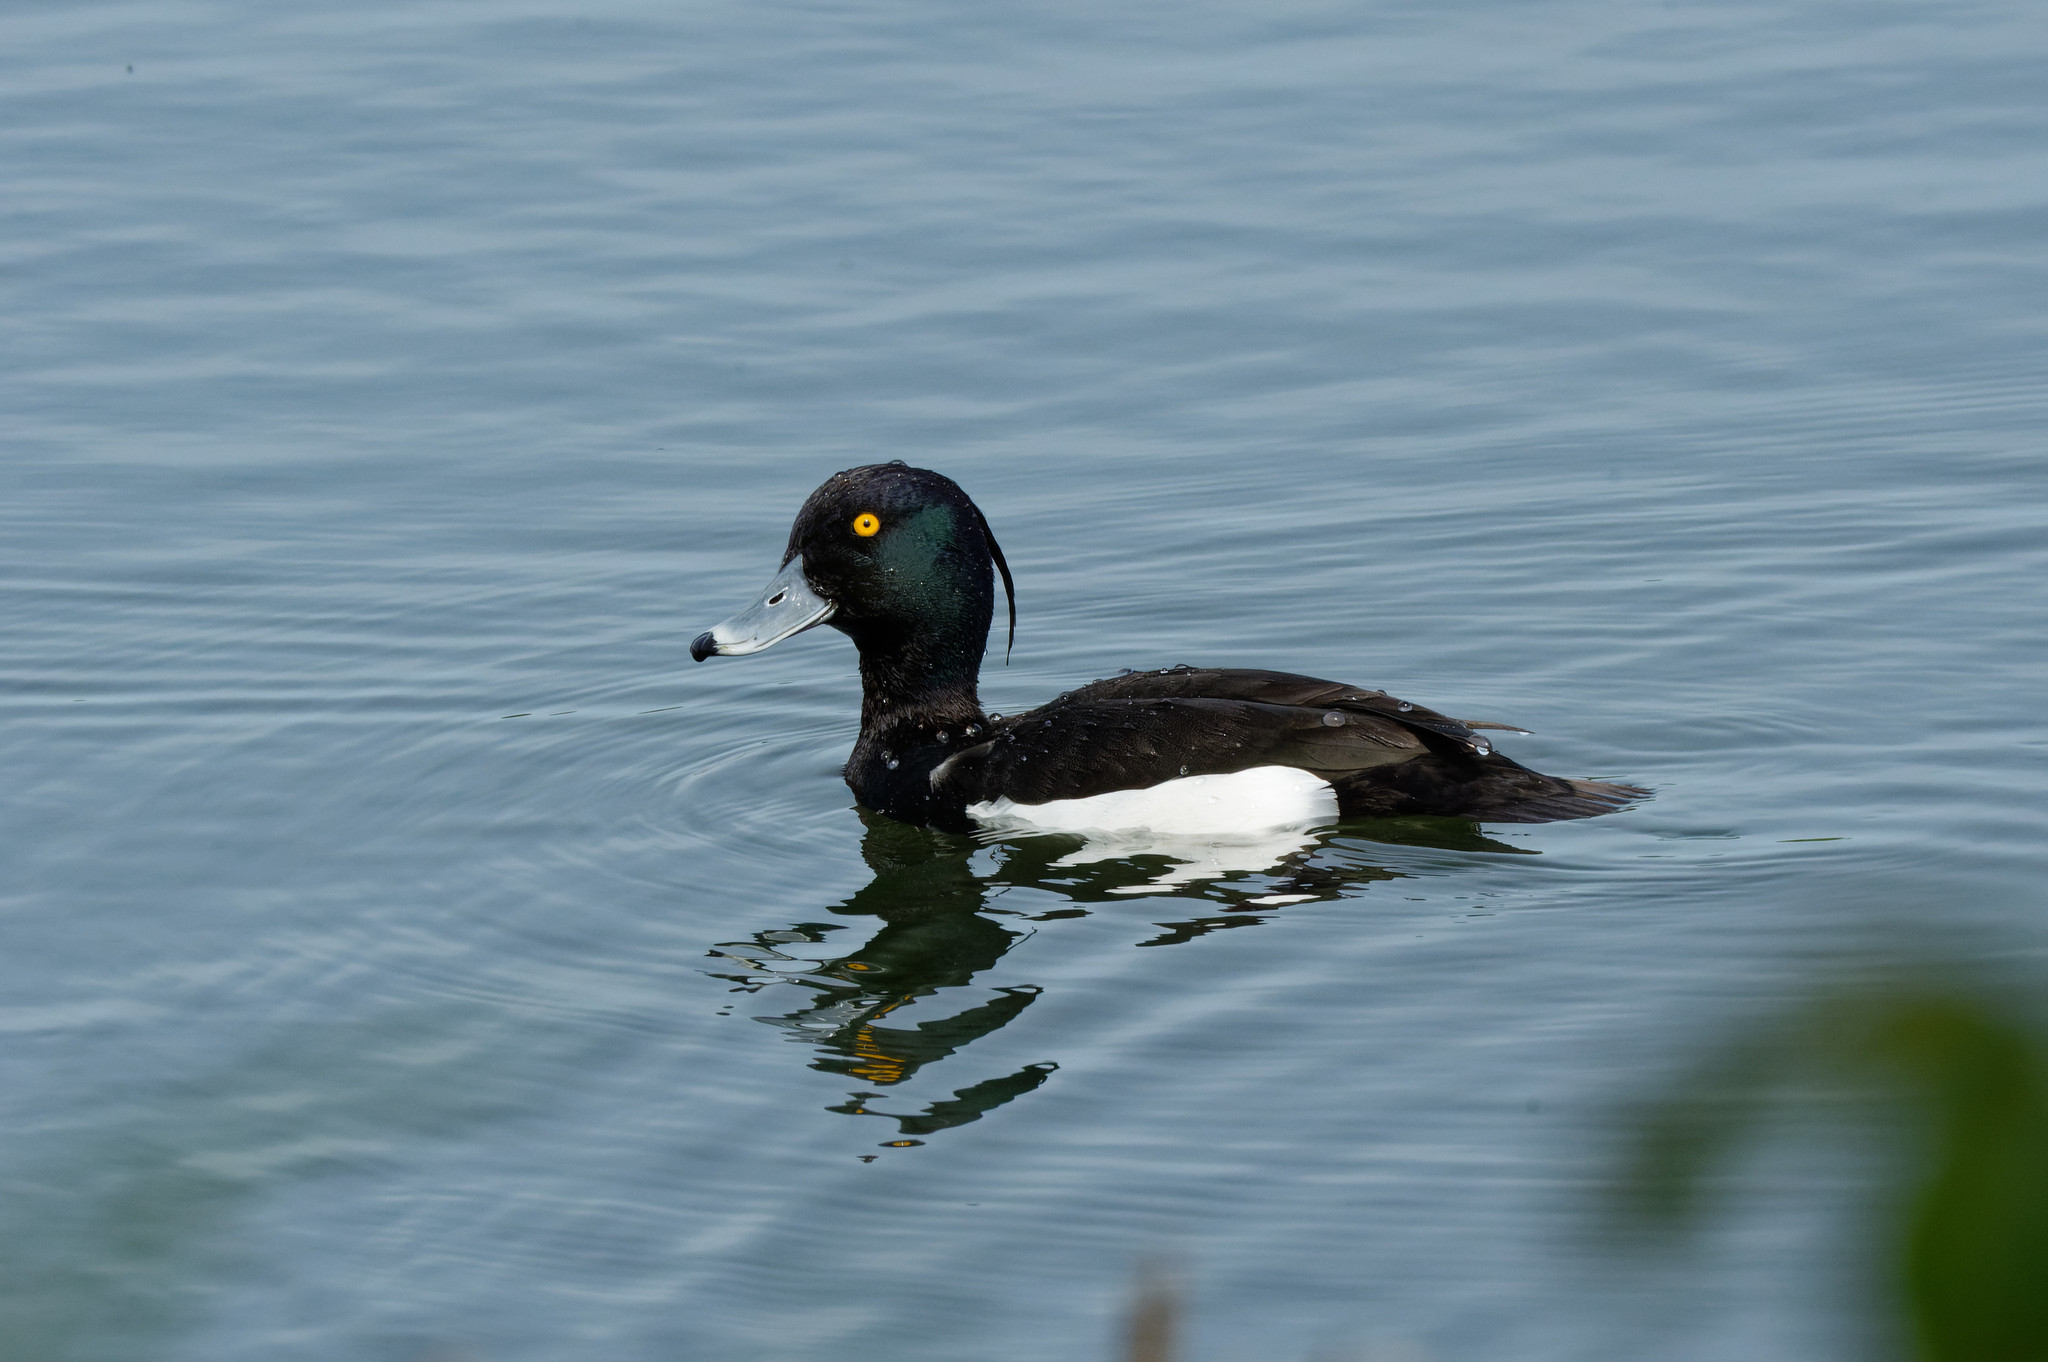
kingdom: Animalia
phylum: Chordata
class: Aves
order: Anseriformes
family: Anatidae
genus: Aythya
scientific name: Aythya fuligula
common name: Tufted duck
